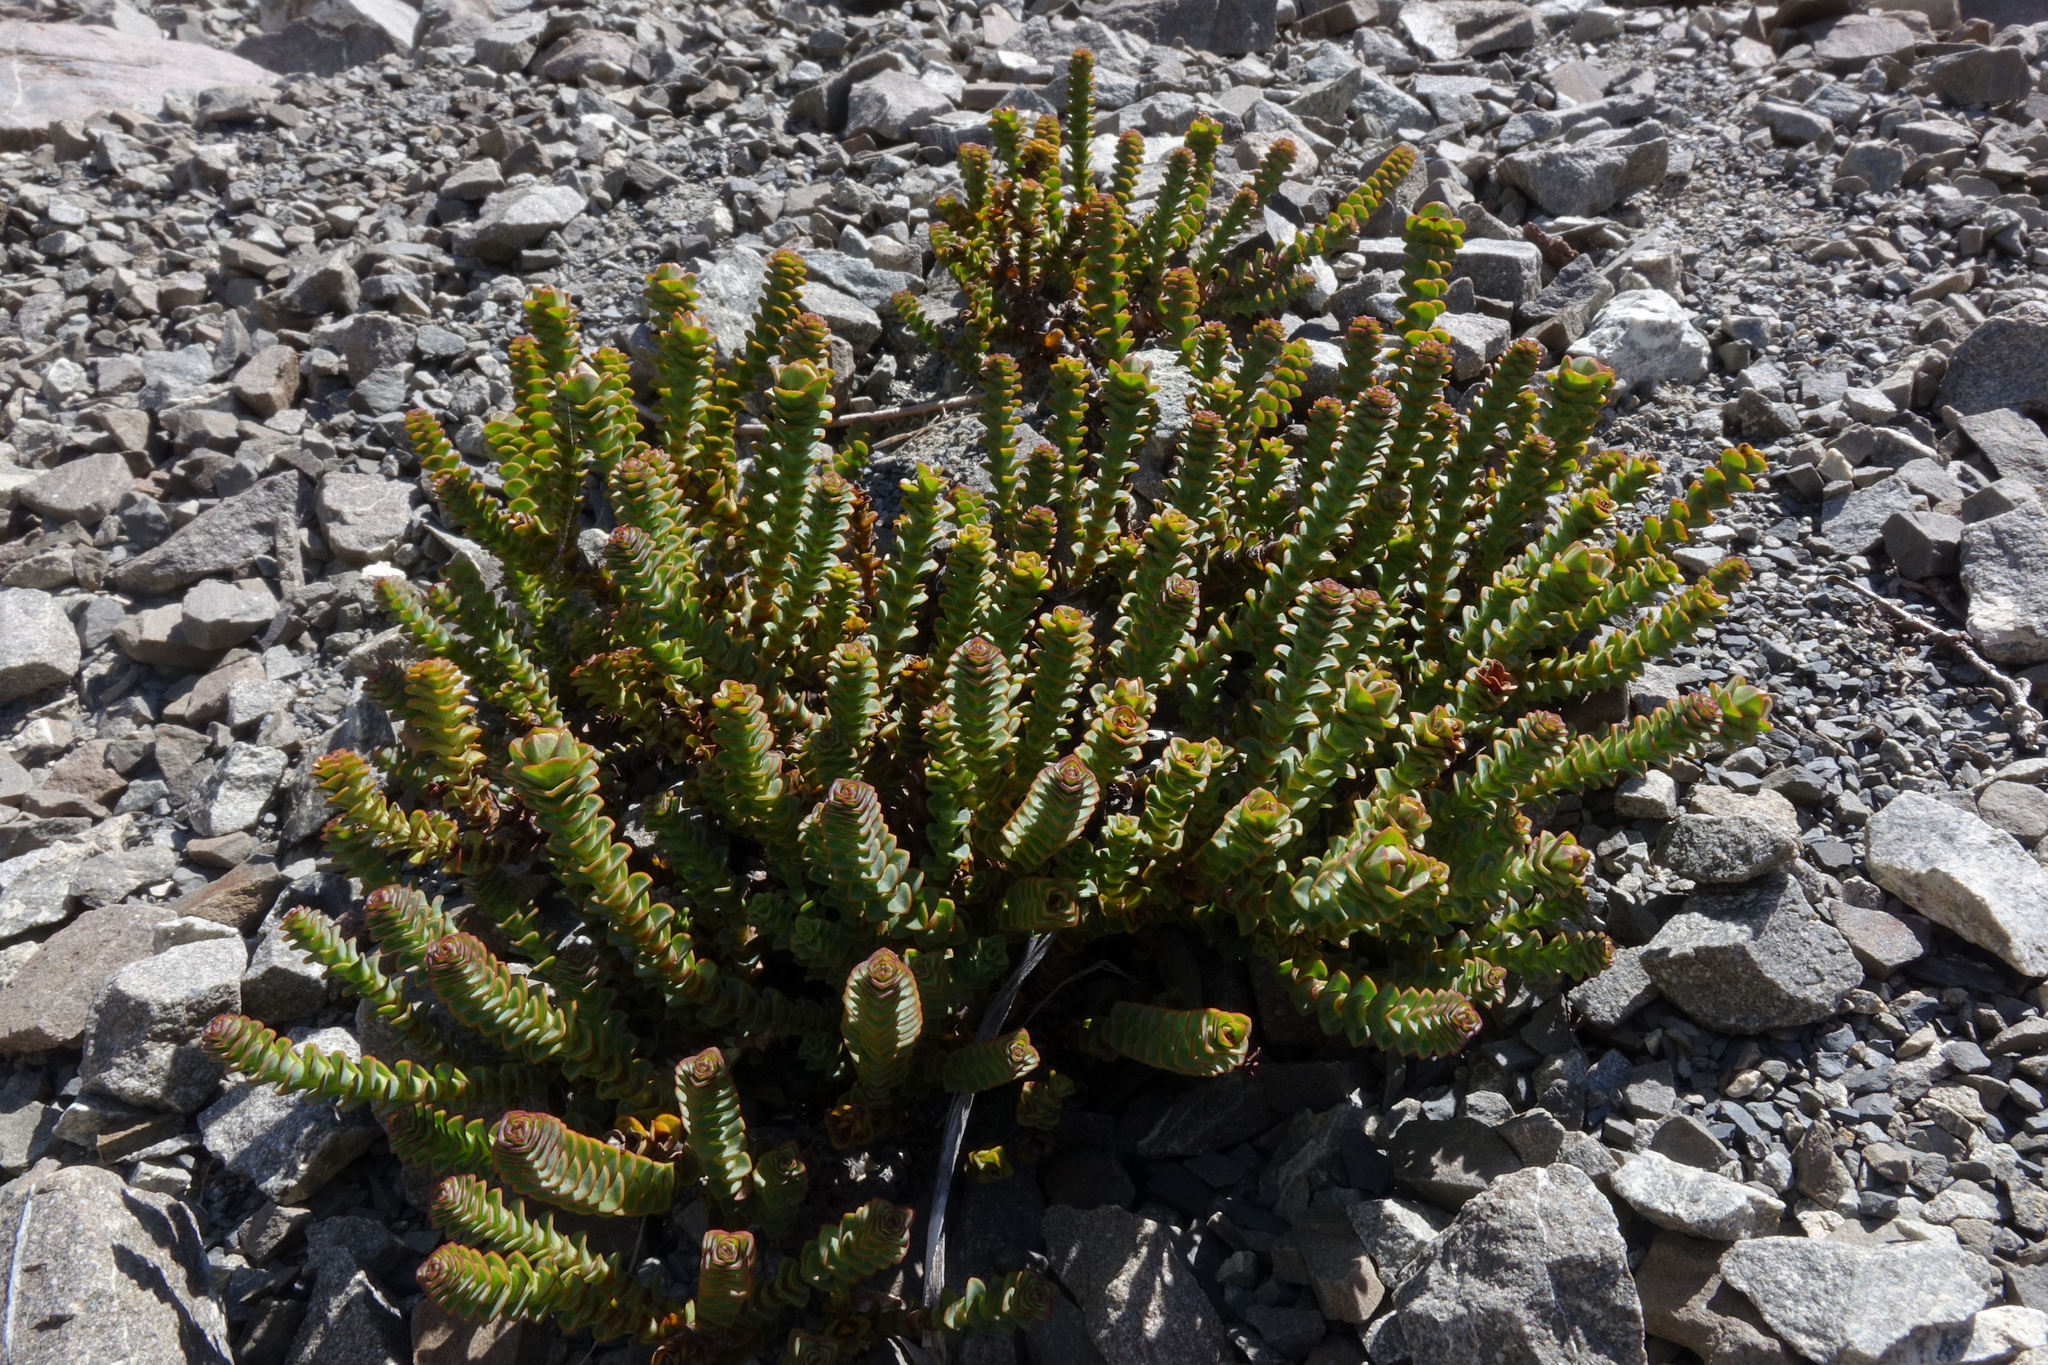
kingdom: Plantae
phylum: Tracheophyta
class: Magnoliopsida
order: Lamiales
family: Plantaginaceae
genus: Veronica
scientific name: Veronica epacridea
